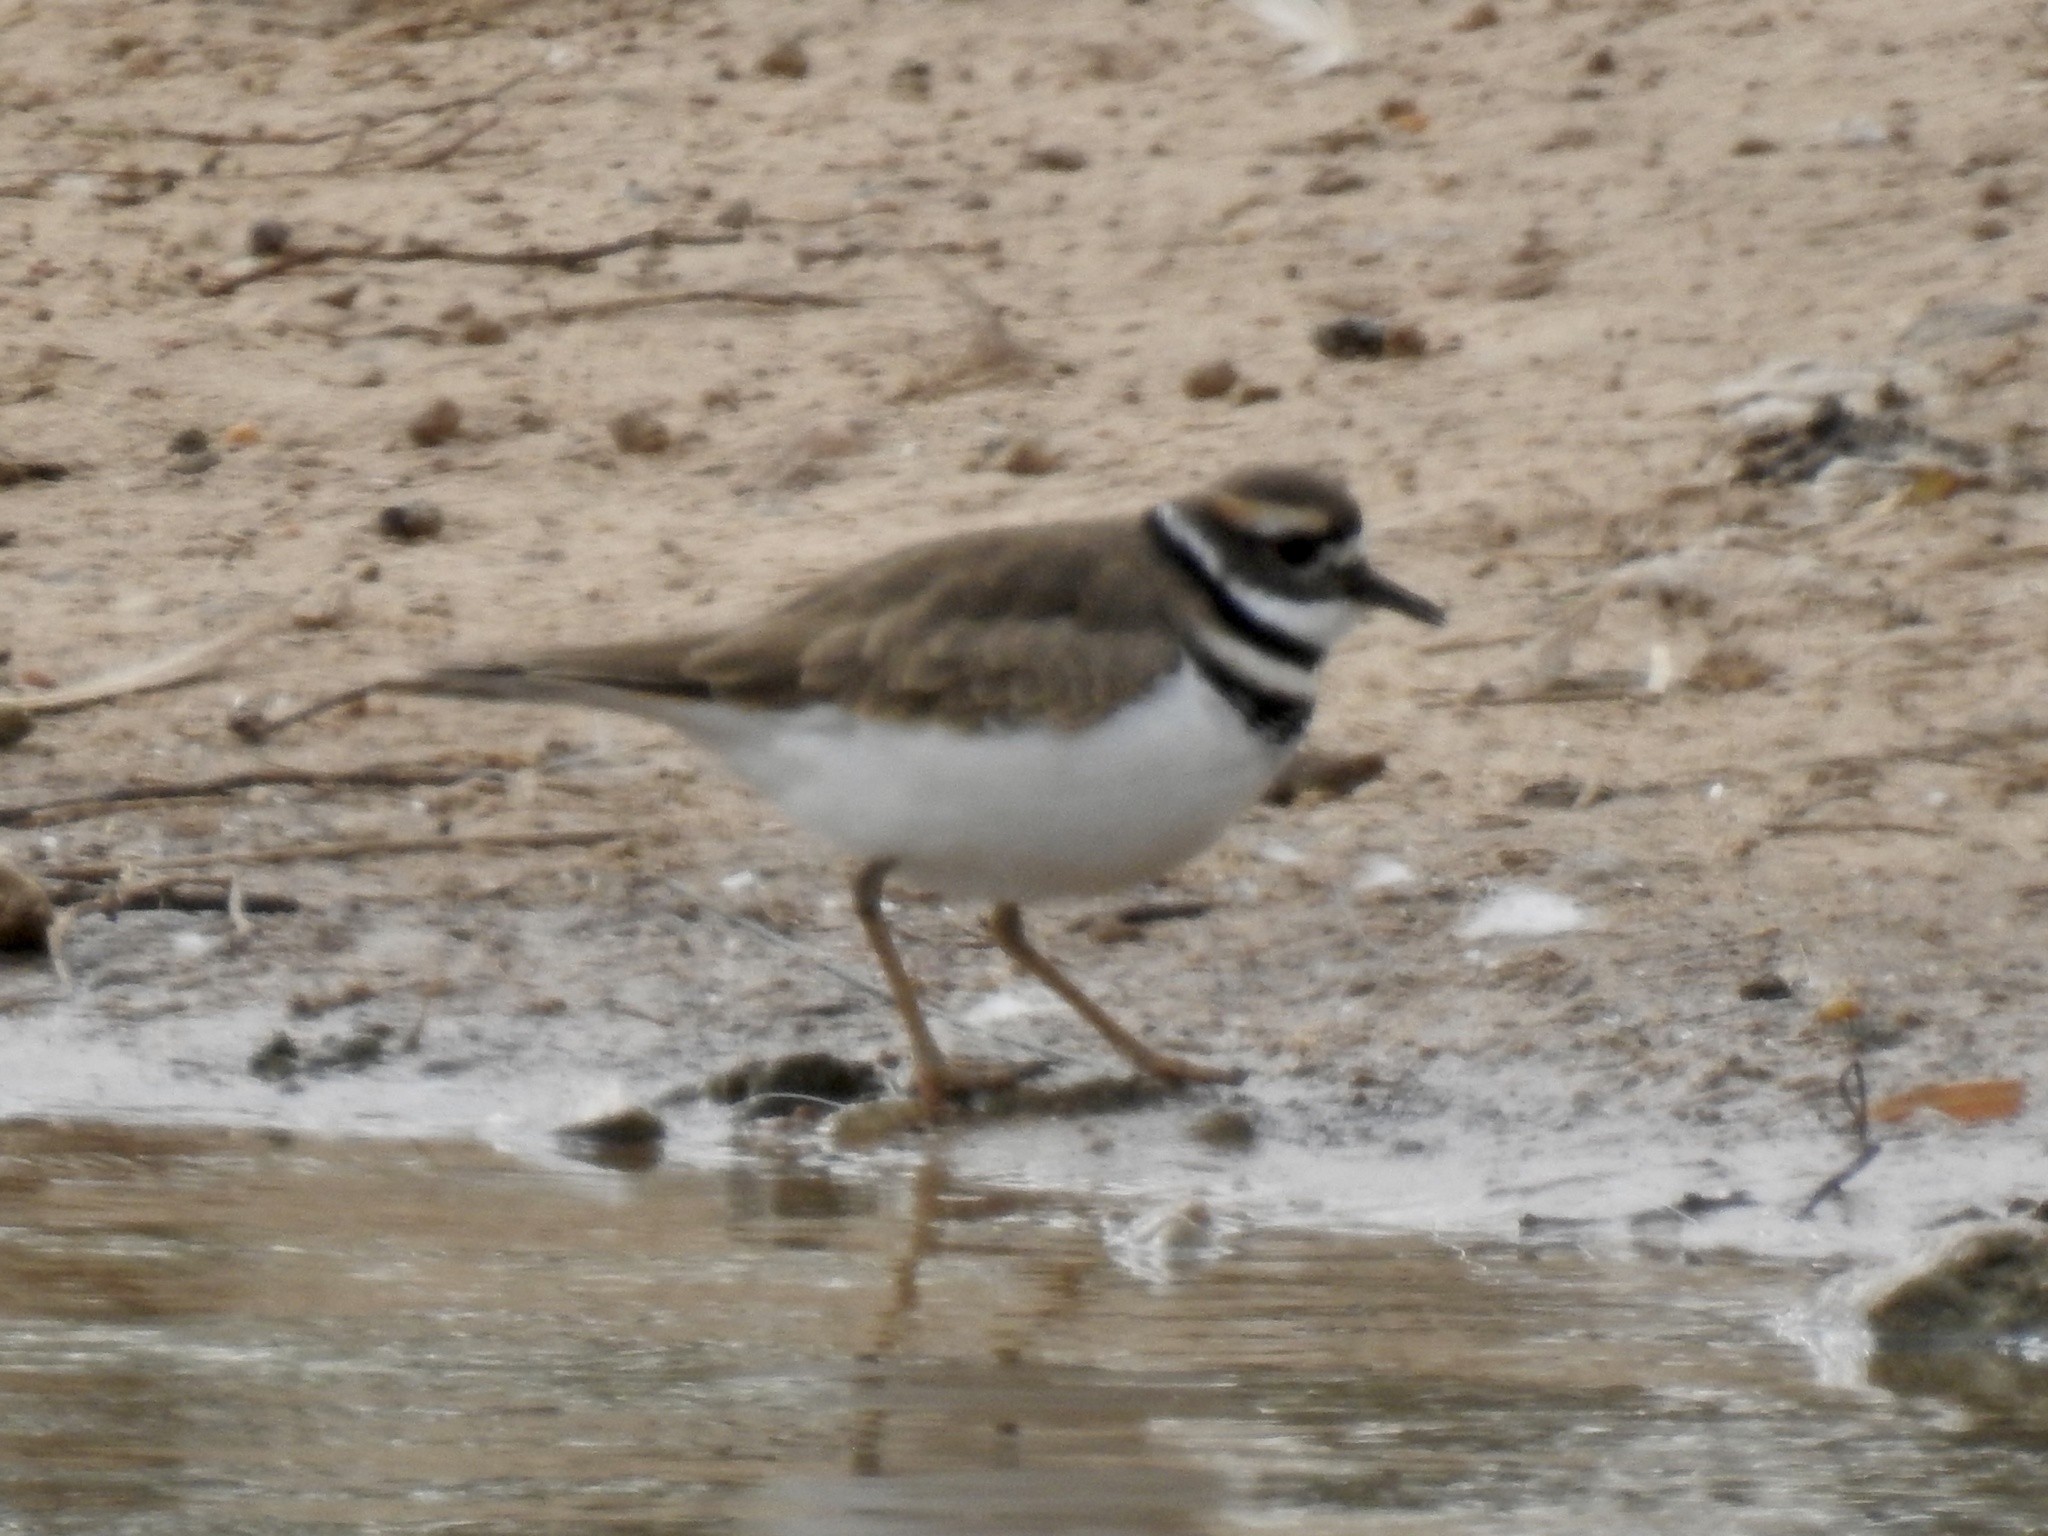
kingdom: Animalia
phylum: Chordata
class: Aves
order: Charadriiformes
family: Charadriidae
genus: Charadrius
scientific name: Charadrius vociferus
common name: Killdeer
